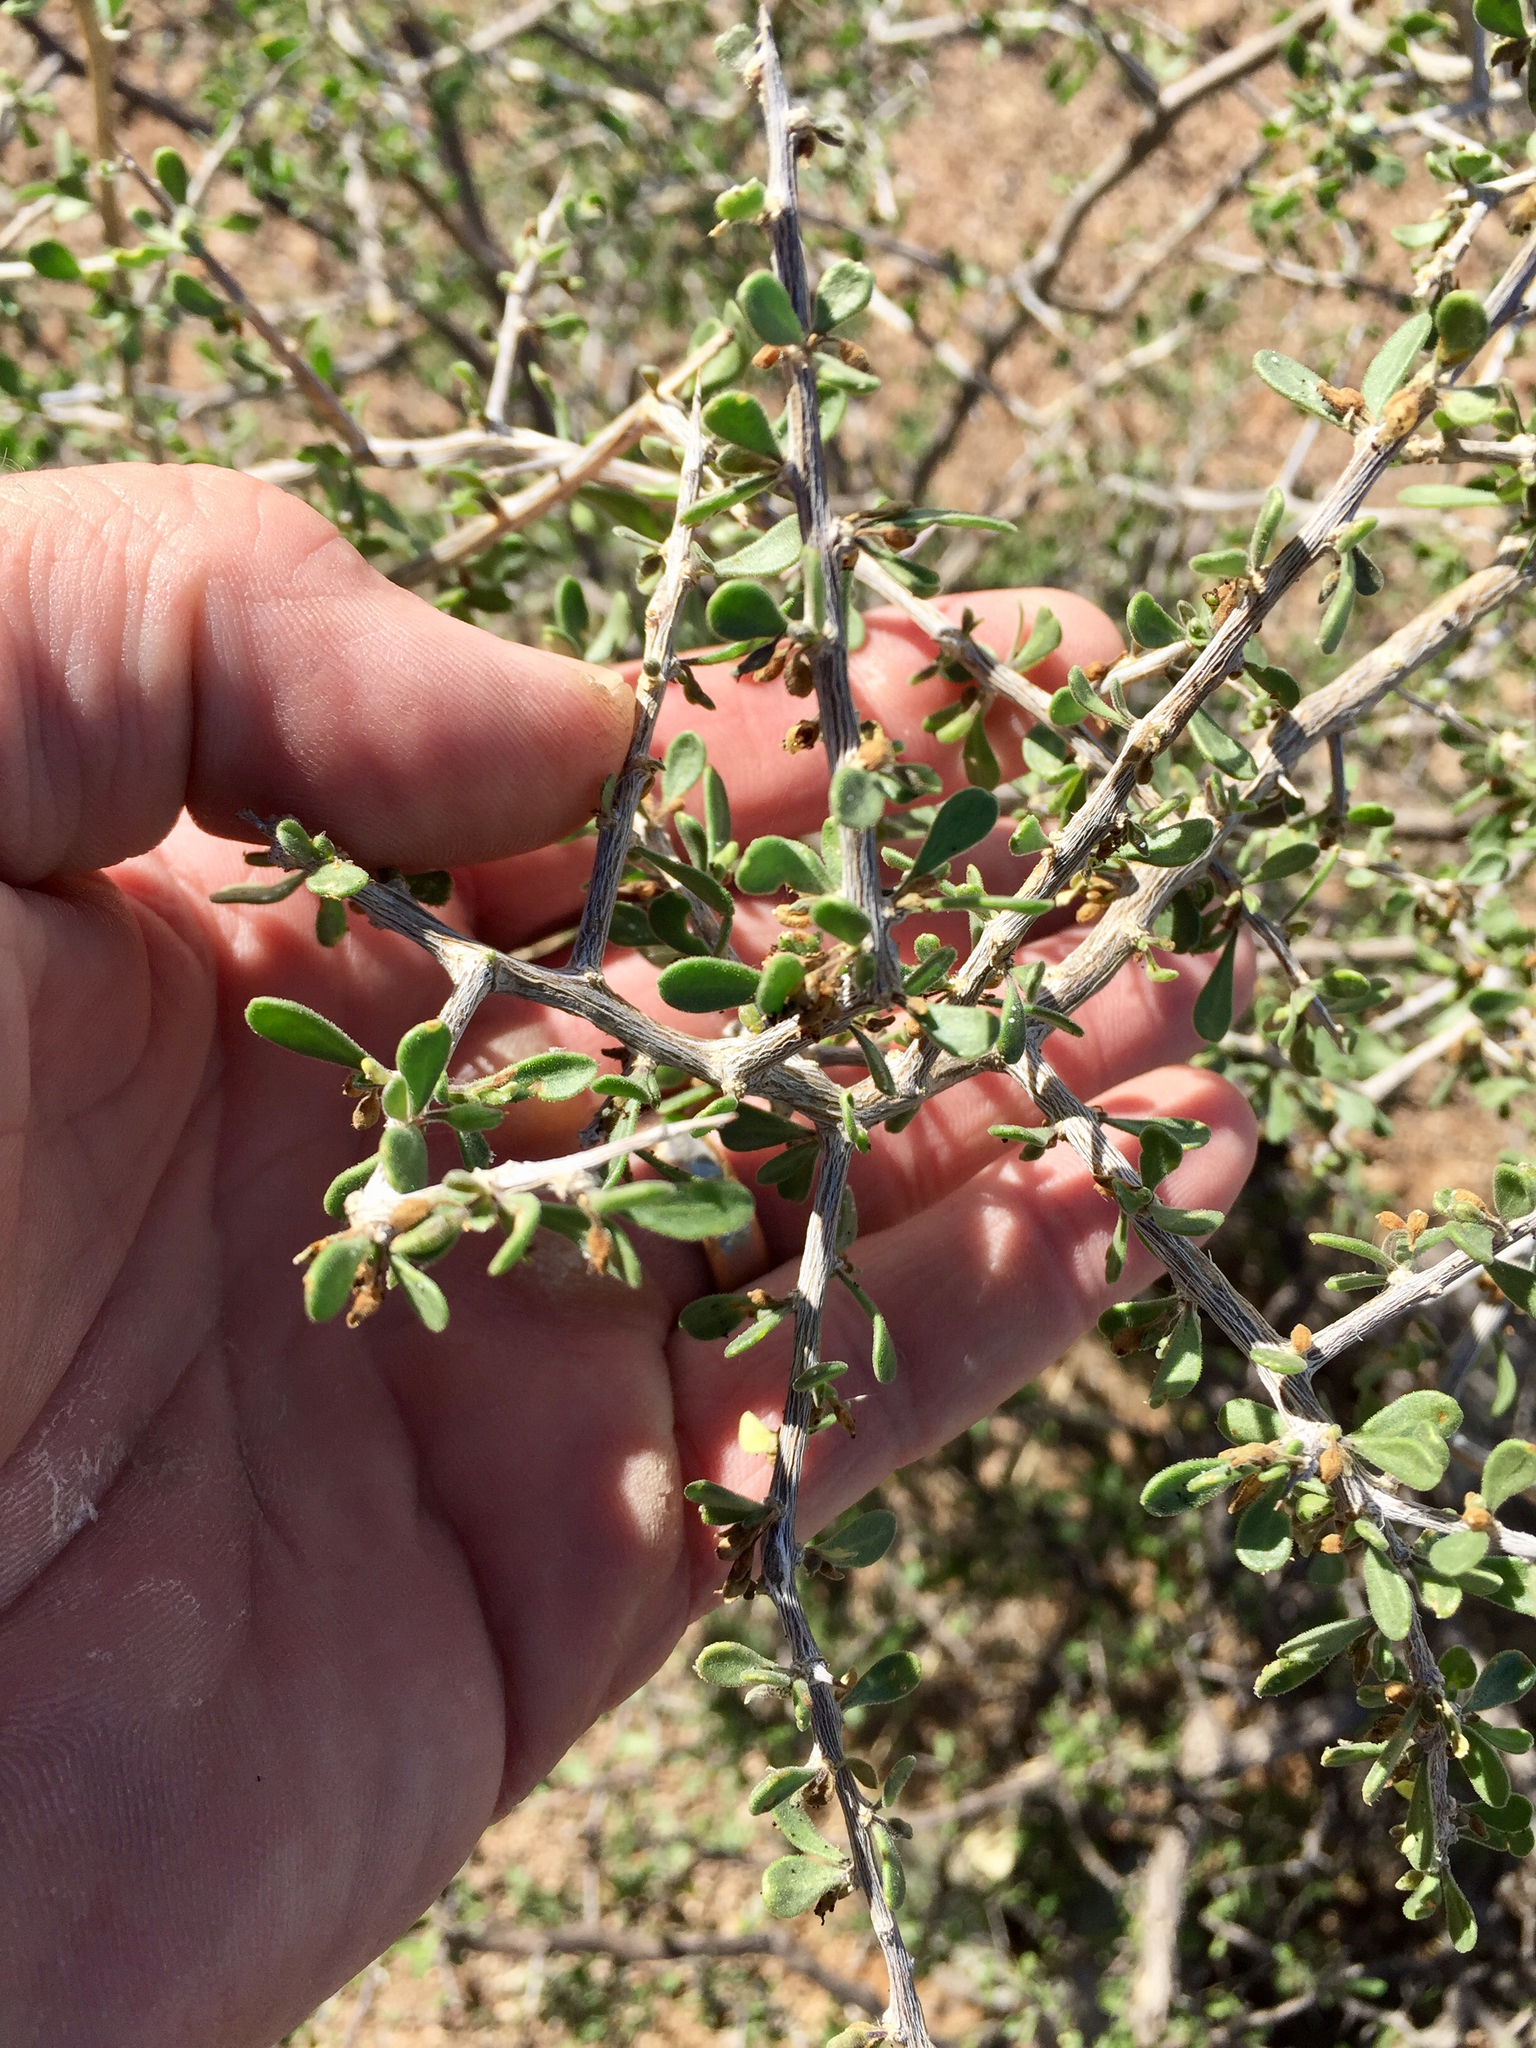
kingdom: Plantae
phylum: Tracheophyta
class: Magnoliopsida
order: Solanales
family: Solanaceae
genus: Lycium
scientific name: Lycium exsertum
